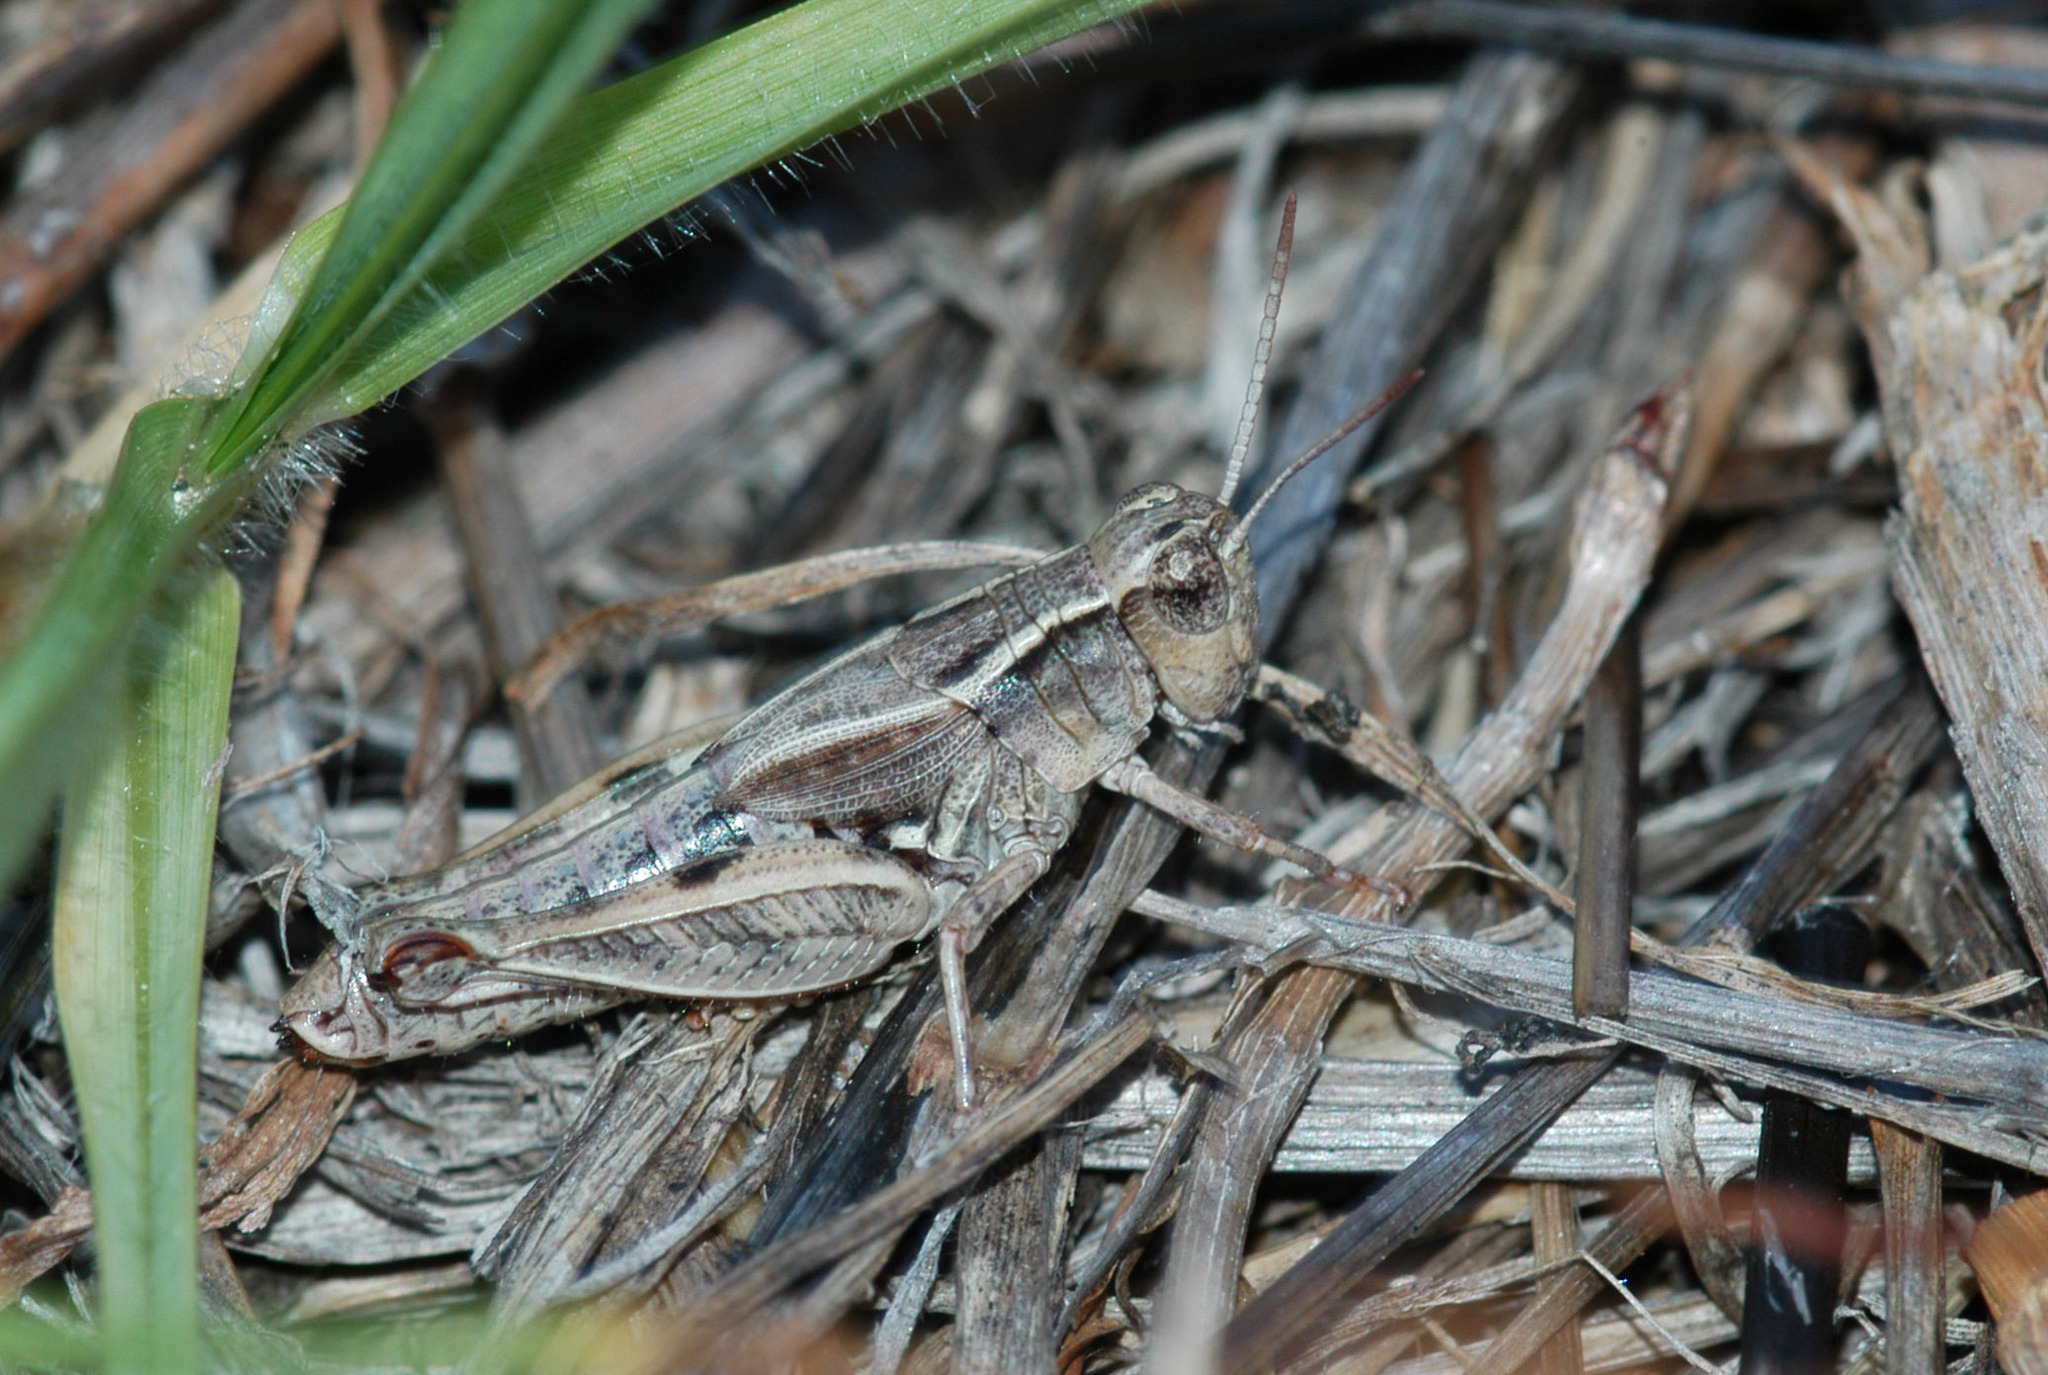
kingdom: Animalia
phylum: Arthropoda
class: Insecta
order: Orthoptera
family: Acrididae
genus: Phaulacridium
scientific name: Phaulacridium vittatum
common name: Wingless grasshopper
